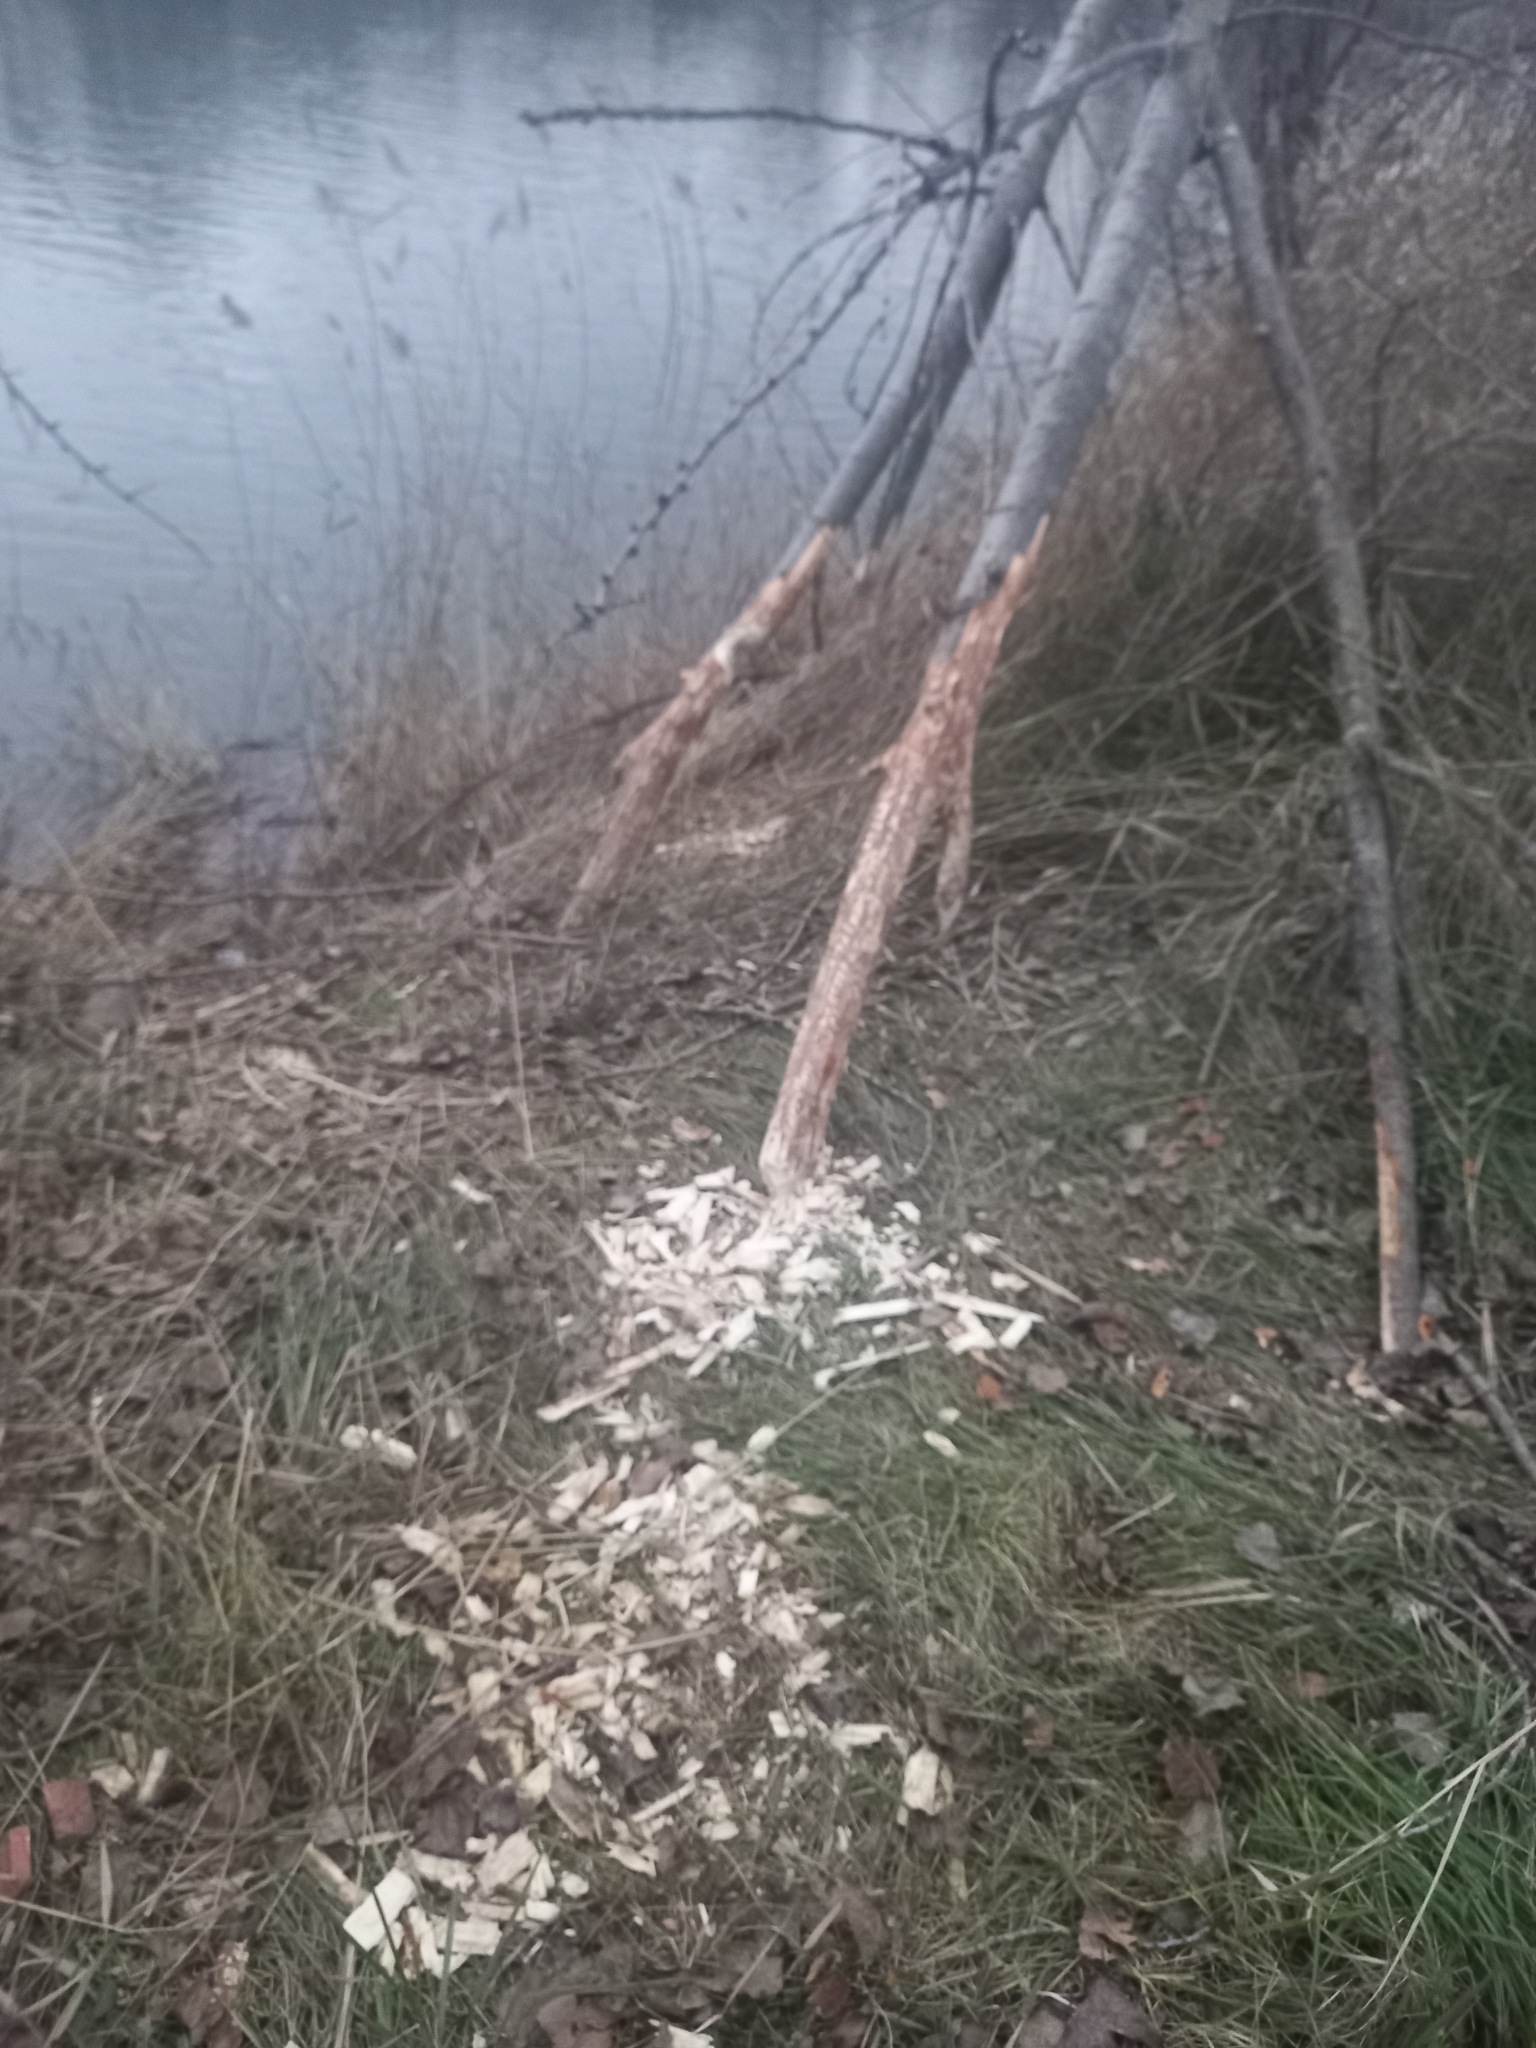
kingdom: Animalia
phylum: Chordata
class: Mammalia
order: Rodentia
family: Castoridae
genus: Castor
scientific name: Castor fiber
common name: Eurasian beaver
